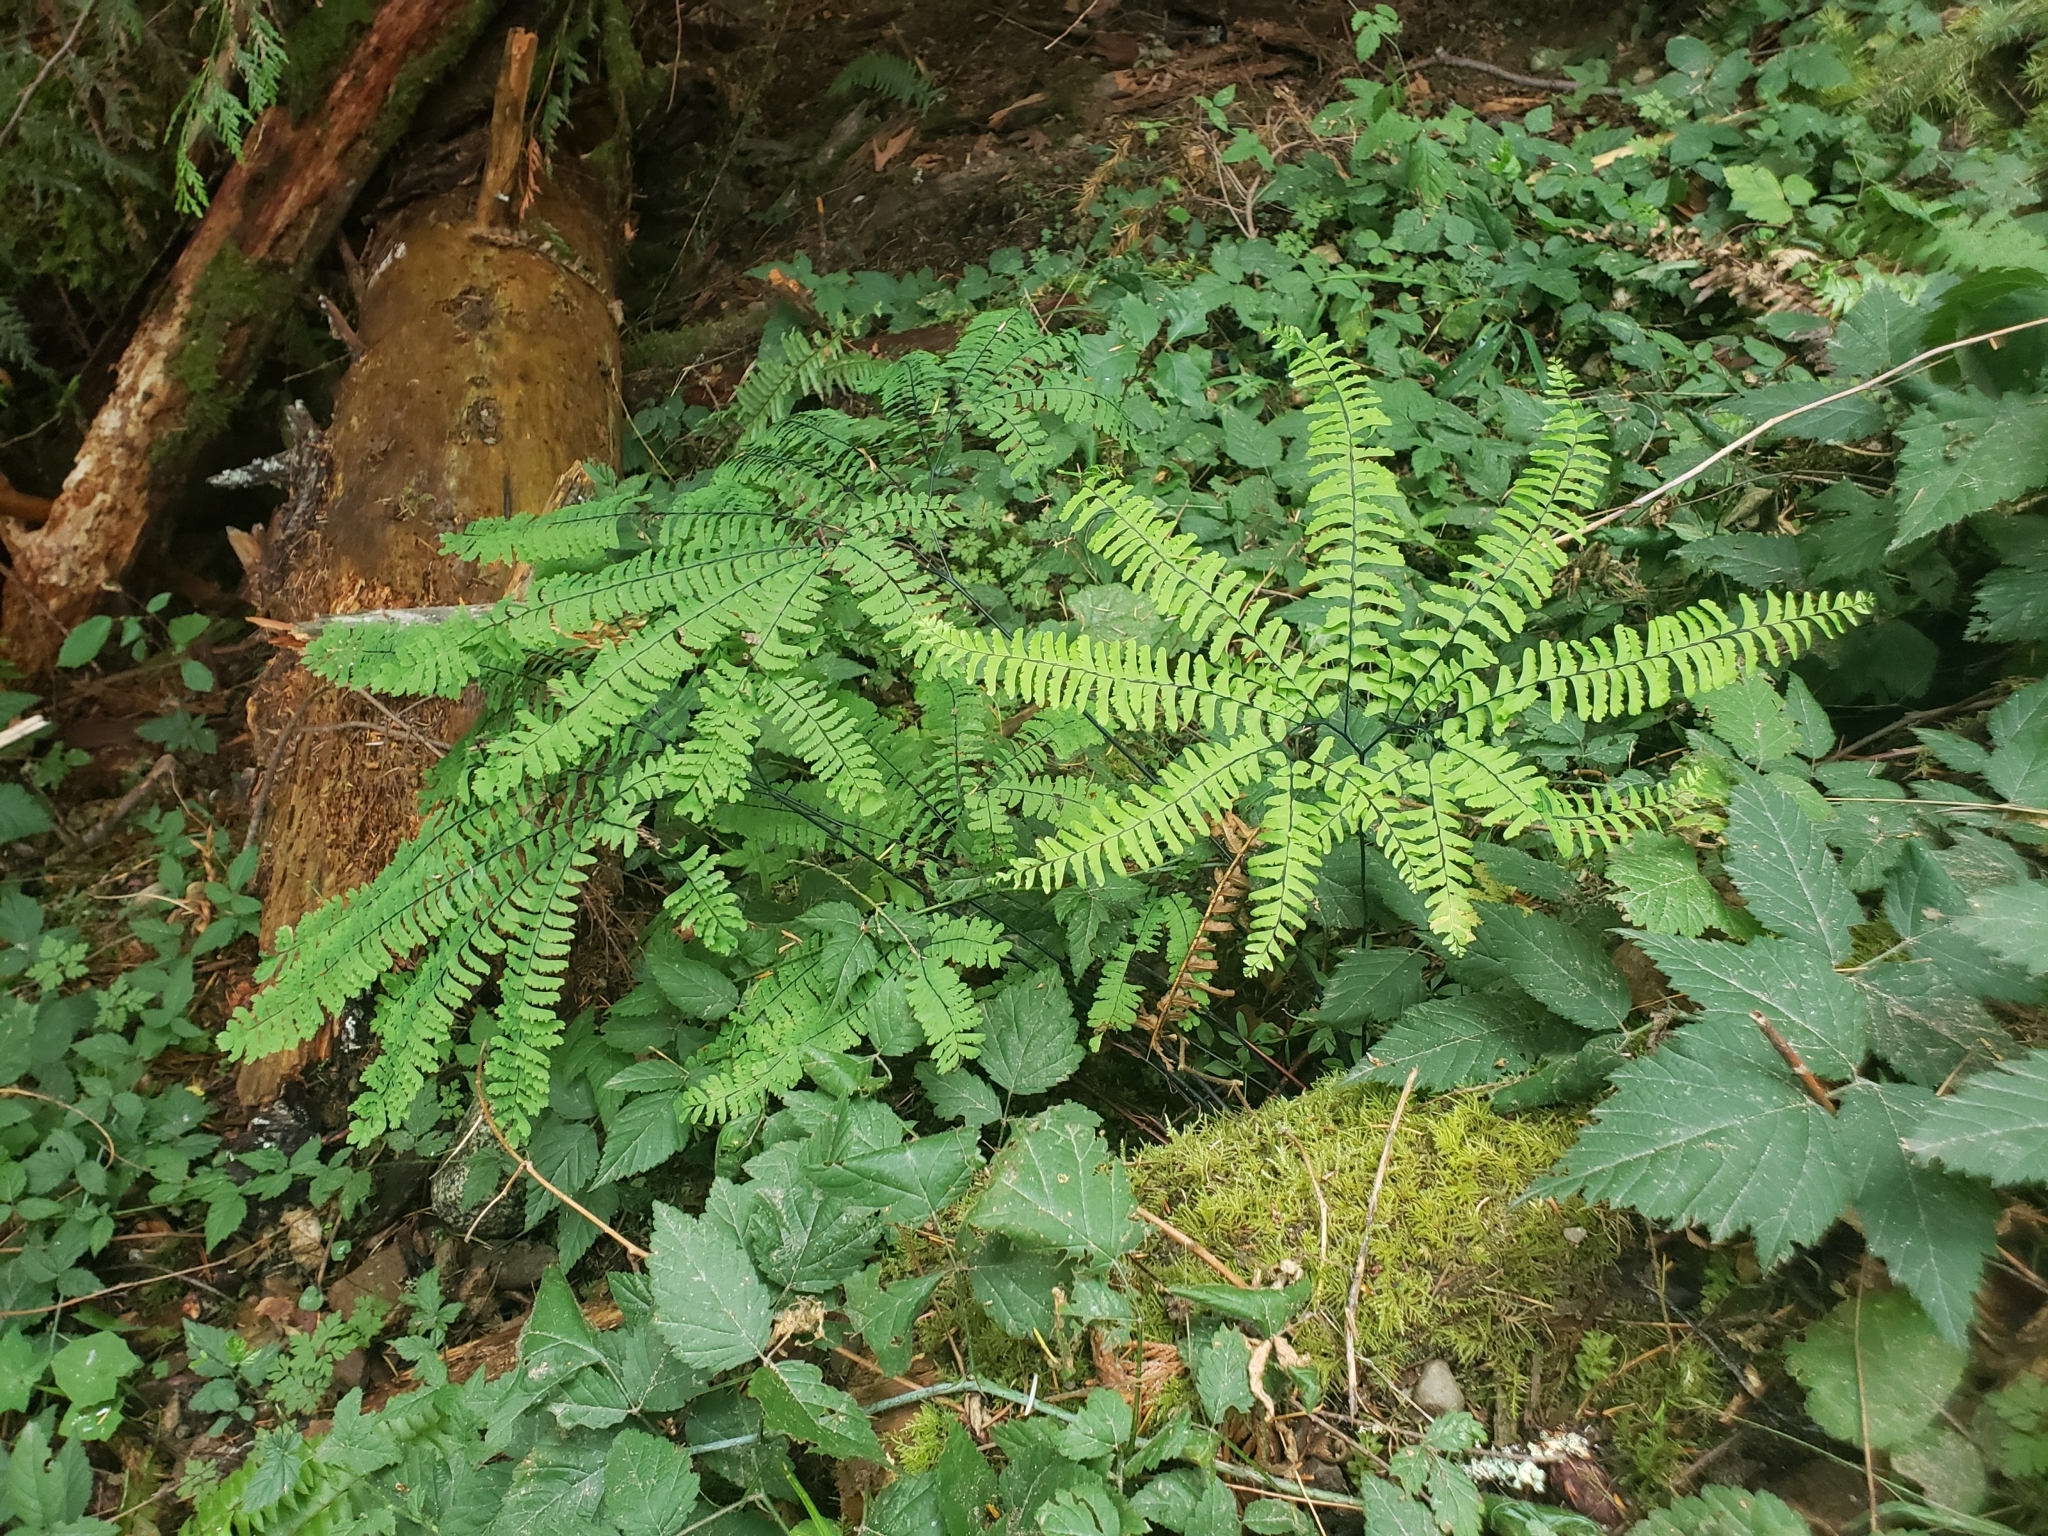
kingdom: Plantae
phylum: Tracheophyta
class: Polypodiopsida
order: Polypodiales
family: Pteridaceae
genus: Adiantum
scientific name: Adiantum aleuticum
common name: Aleutian maidenhair fern
